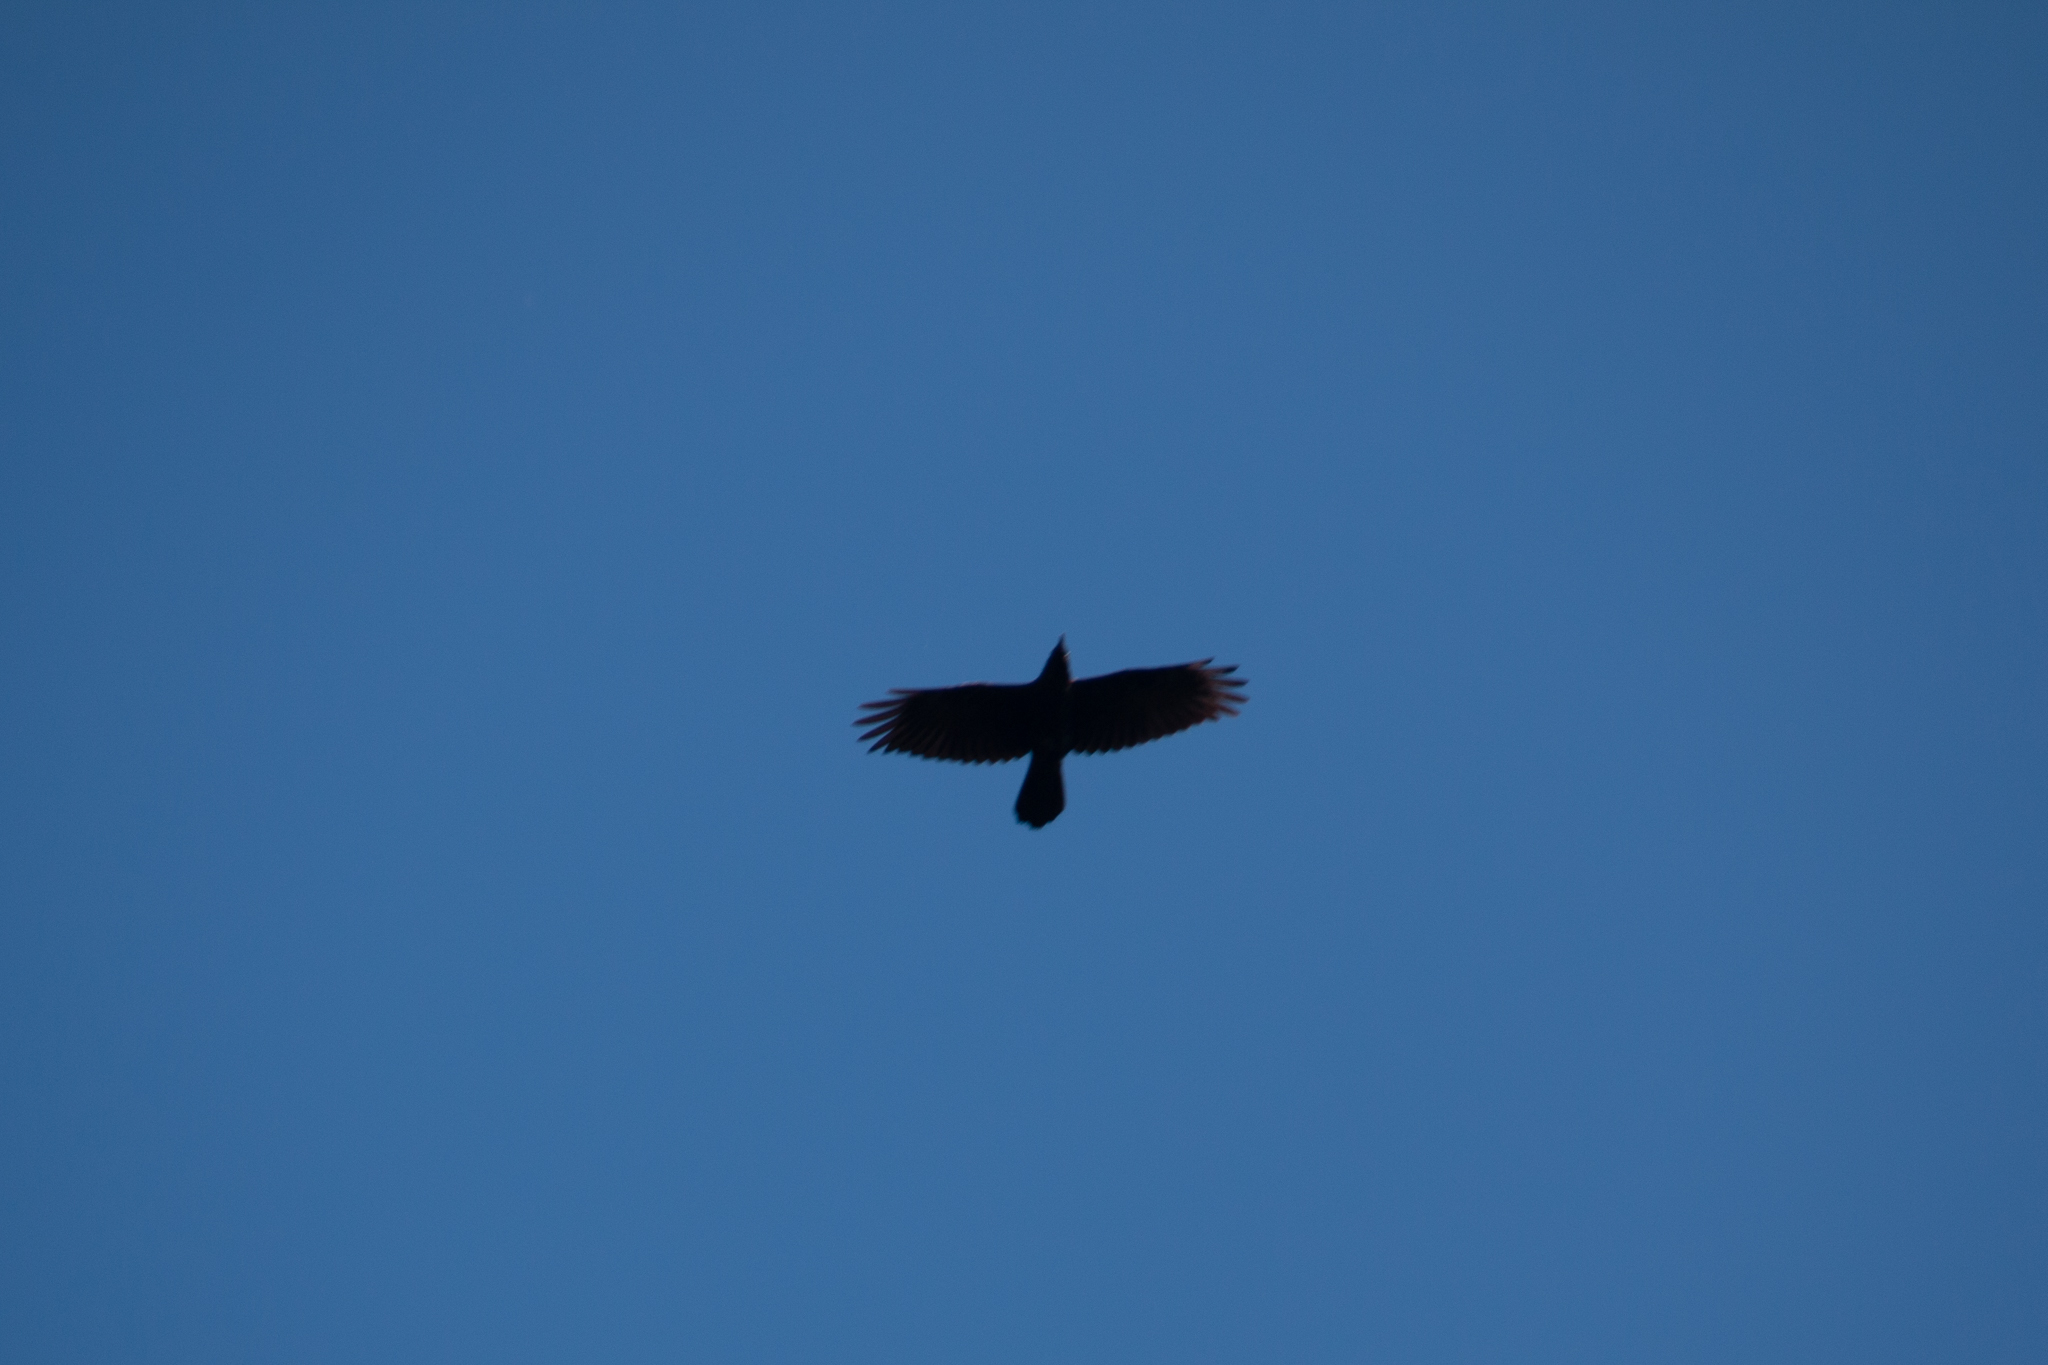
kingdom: Animalia
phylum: Chordata
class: Aves
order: Passeriformes
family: Corvidae
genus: Corvus
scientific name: Corvus brachyrhynchos
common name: American crow
